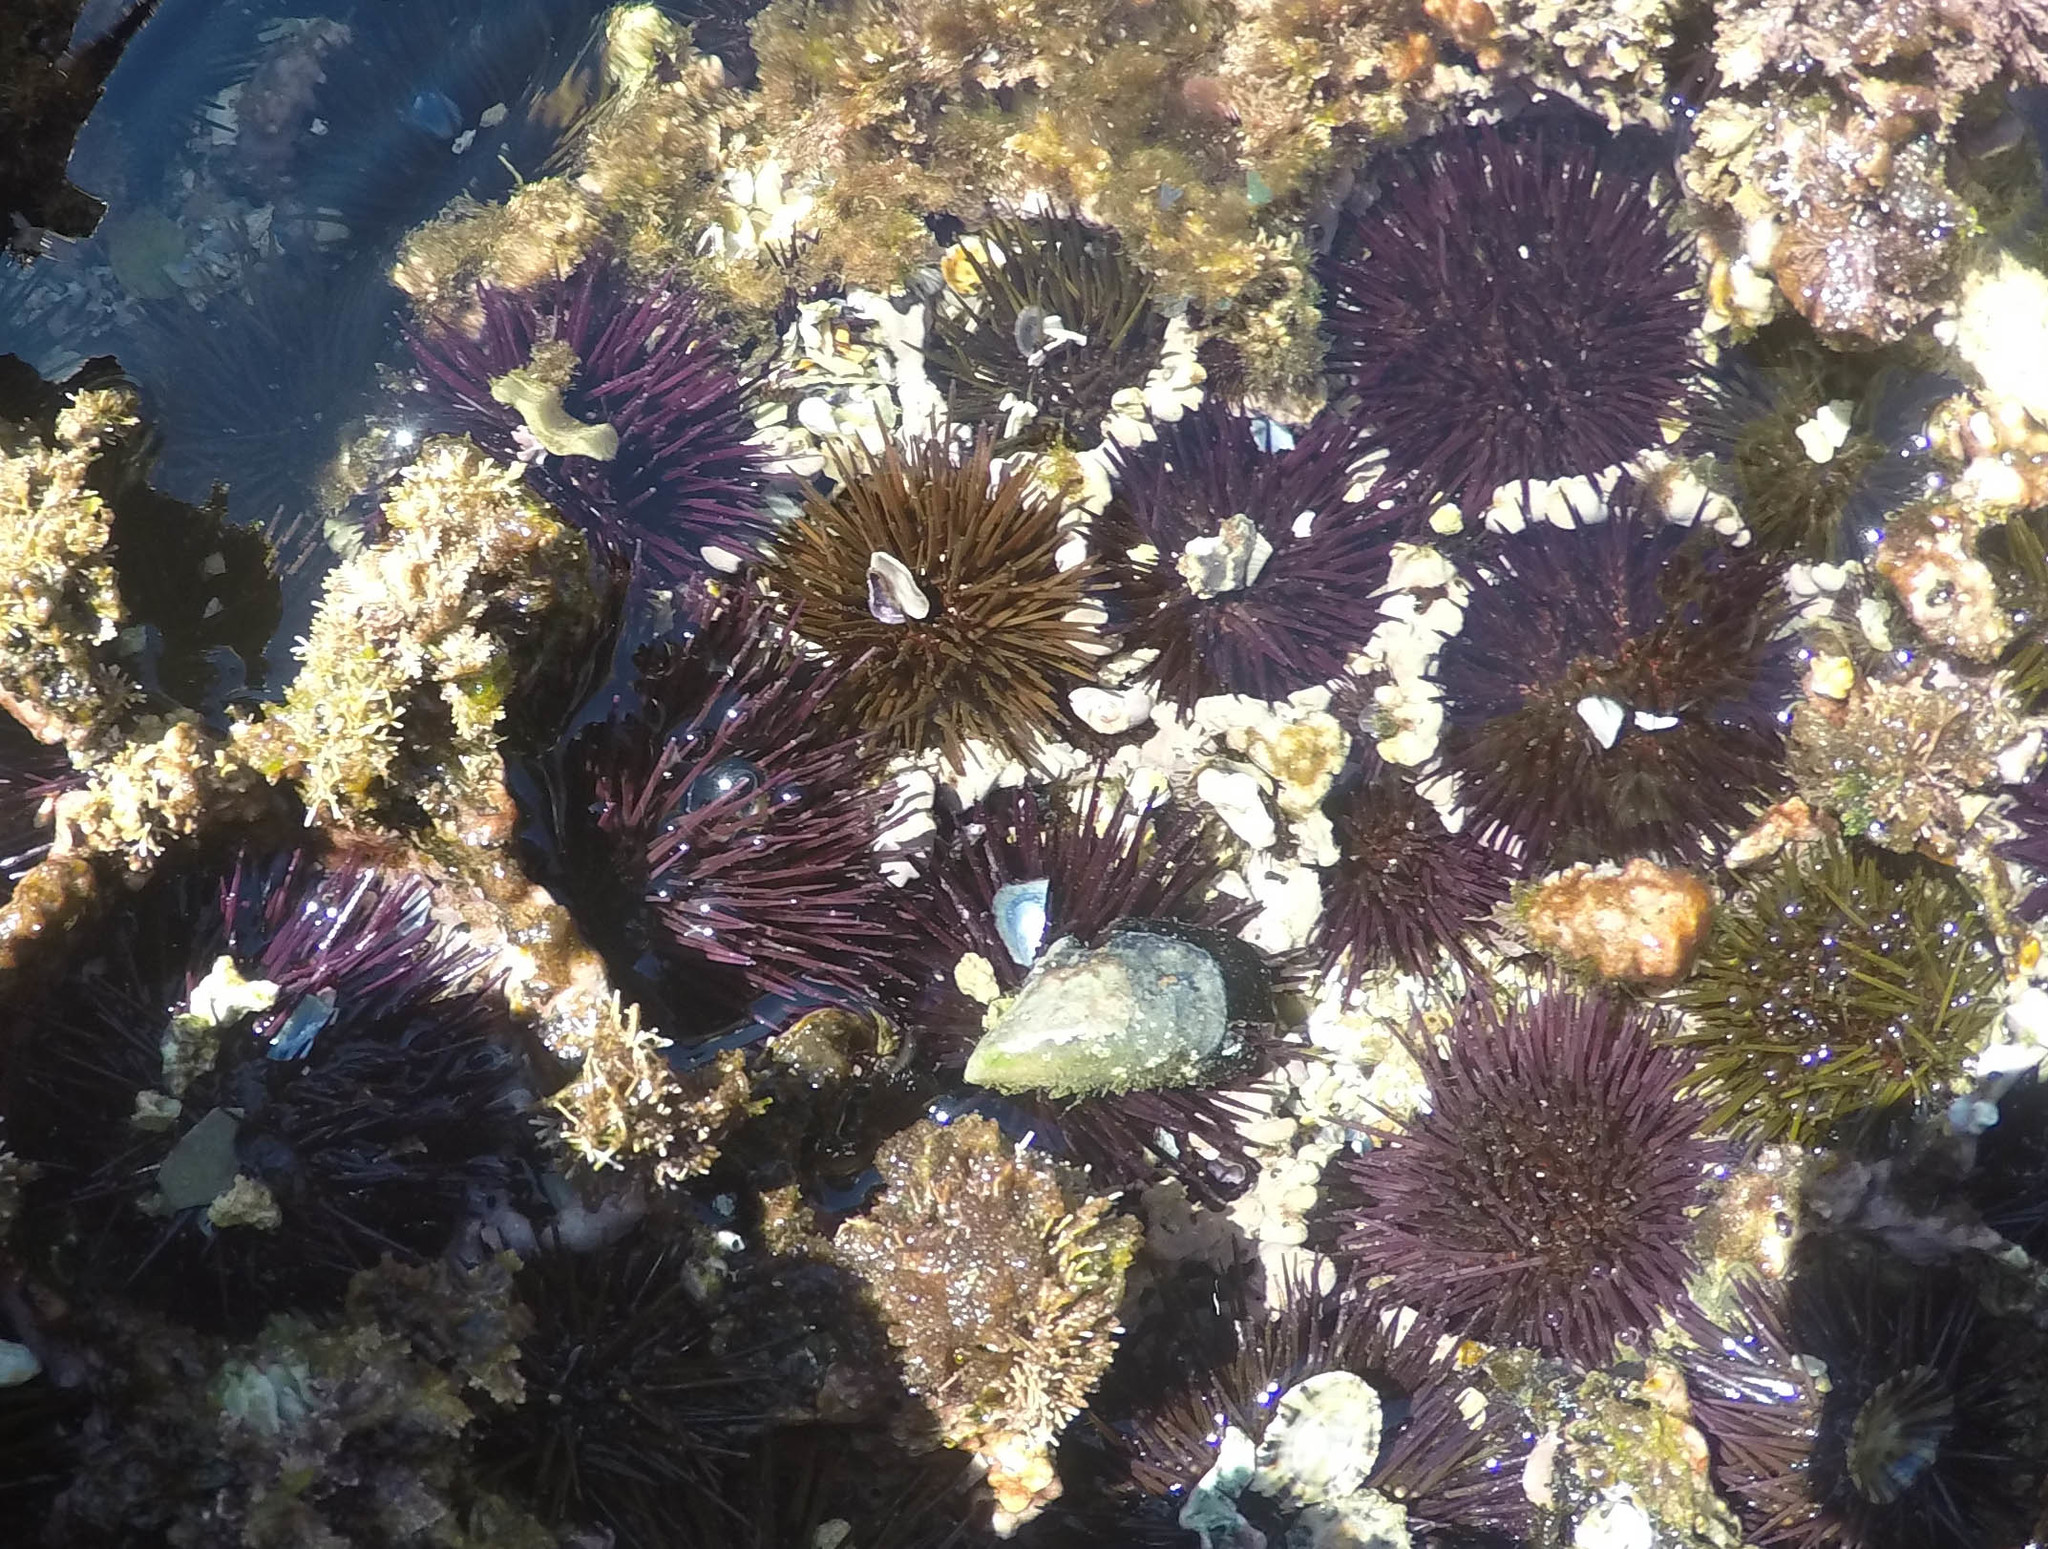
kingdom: Animalia
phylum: Echinodermata
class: Echinoidea
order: Camarodonta
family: Parechinidae
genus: Paracentrotus
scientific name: Paracentrotus lividus
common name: Purple sea urchin
